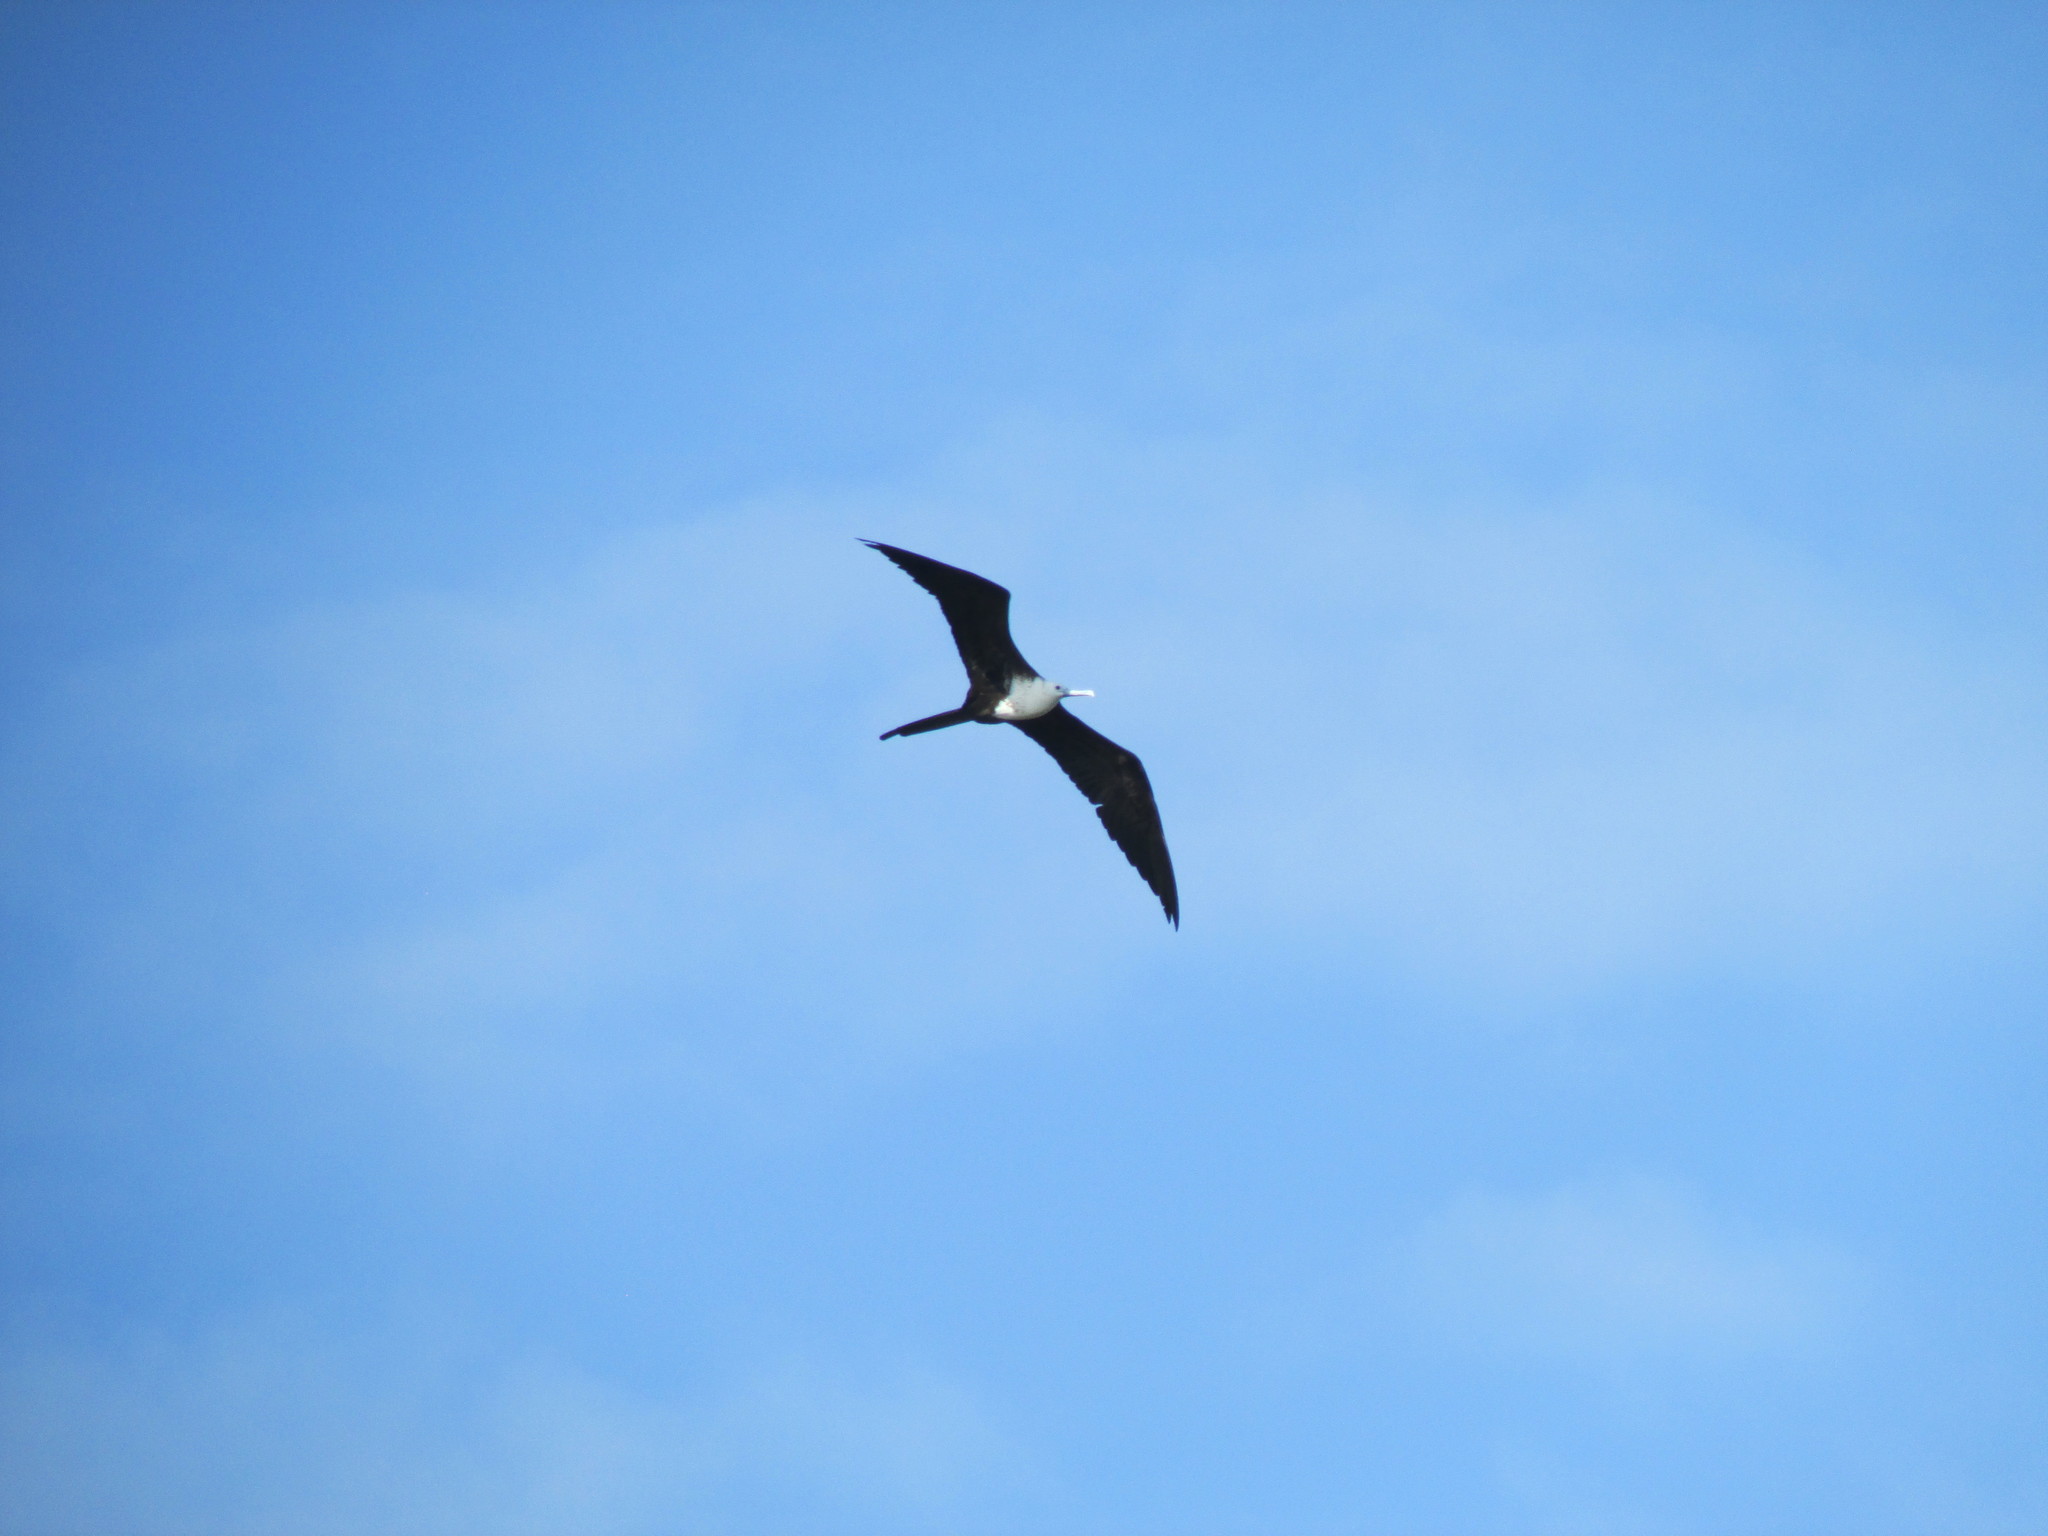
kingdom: Animalia
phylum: Chordata
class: Aves
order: Suliformes
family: Fregatidae
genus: Fregata
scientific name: Fregata magnificens
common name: Magnificent frigatebird
